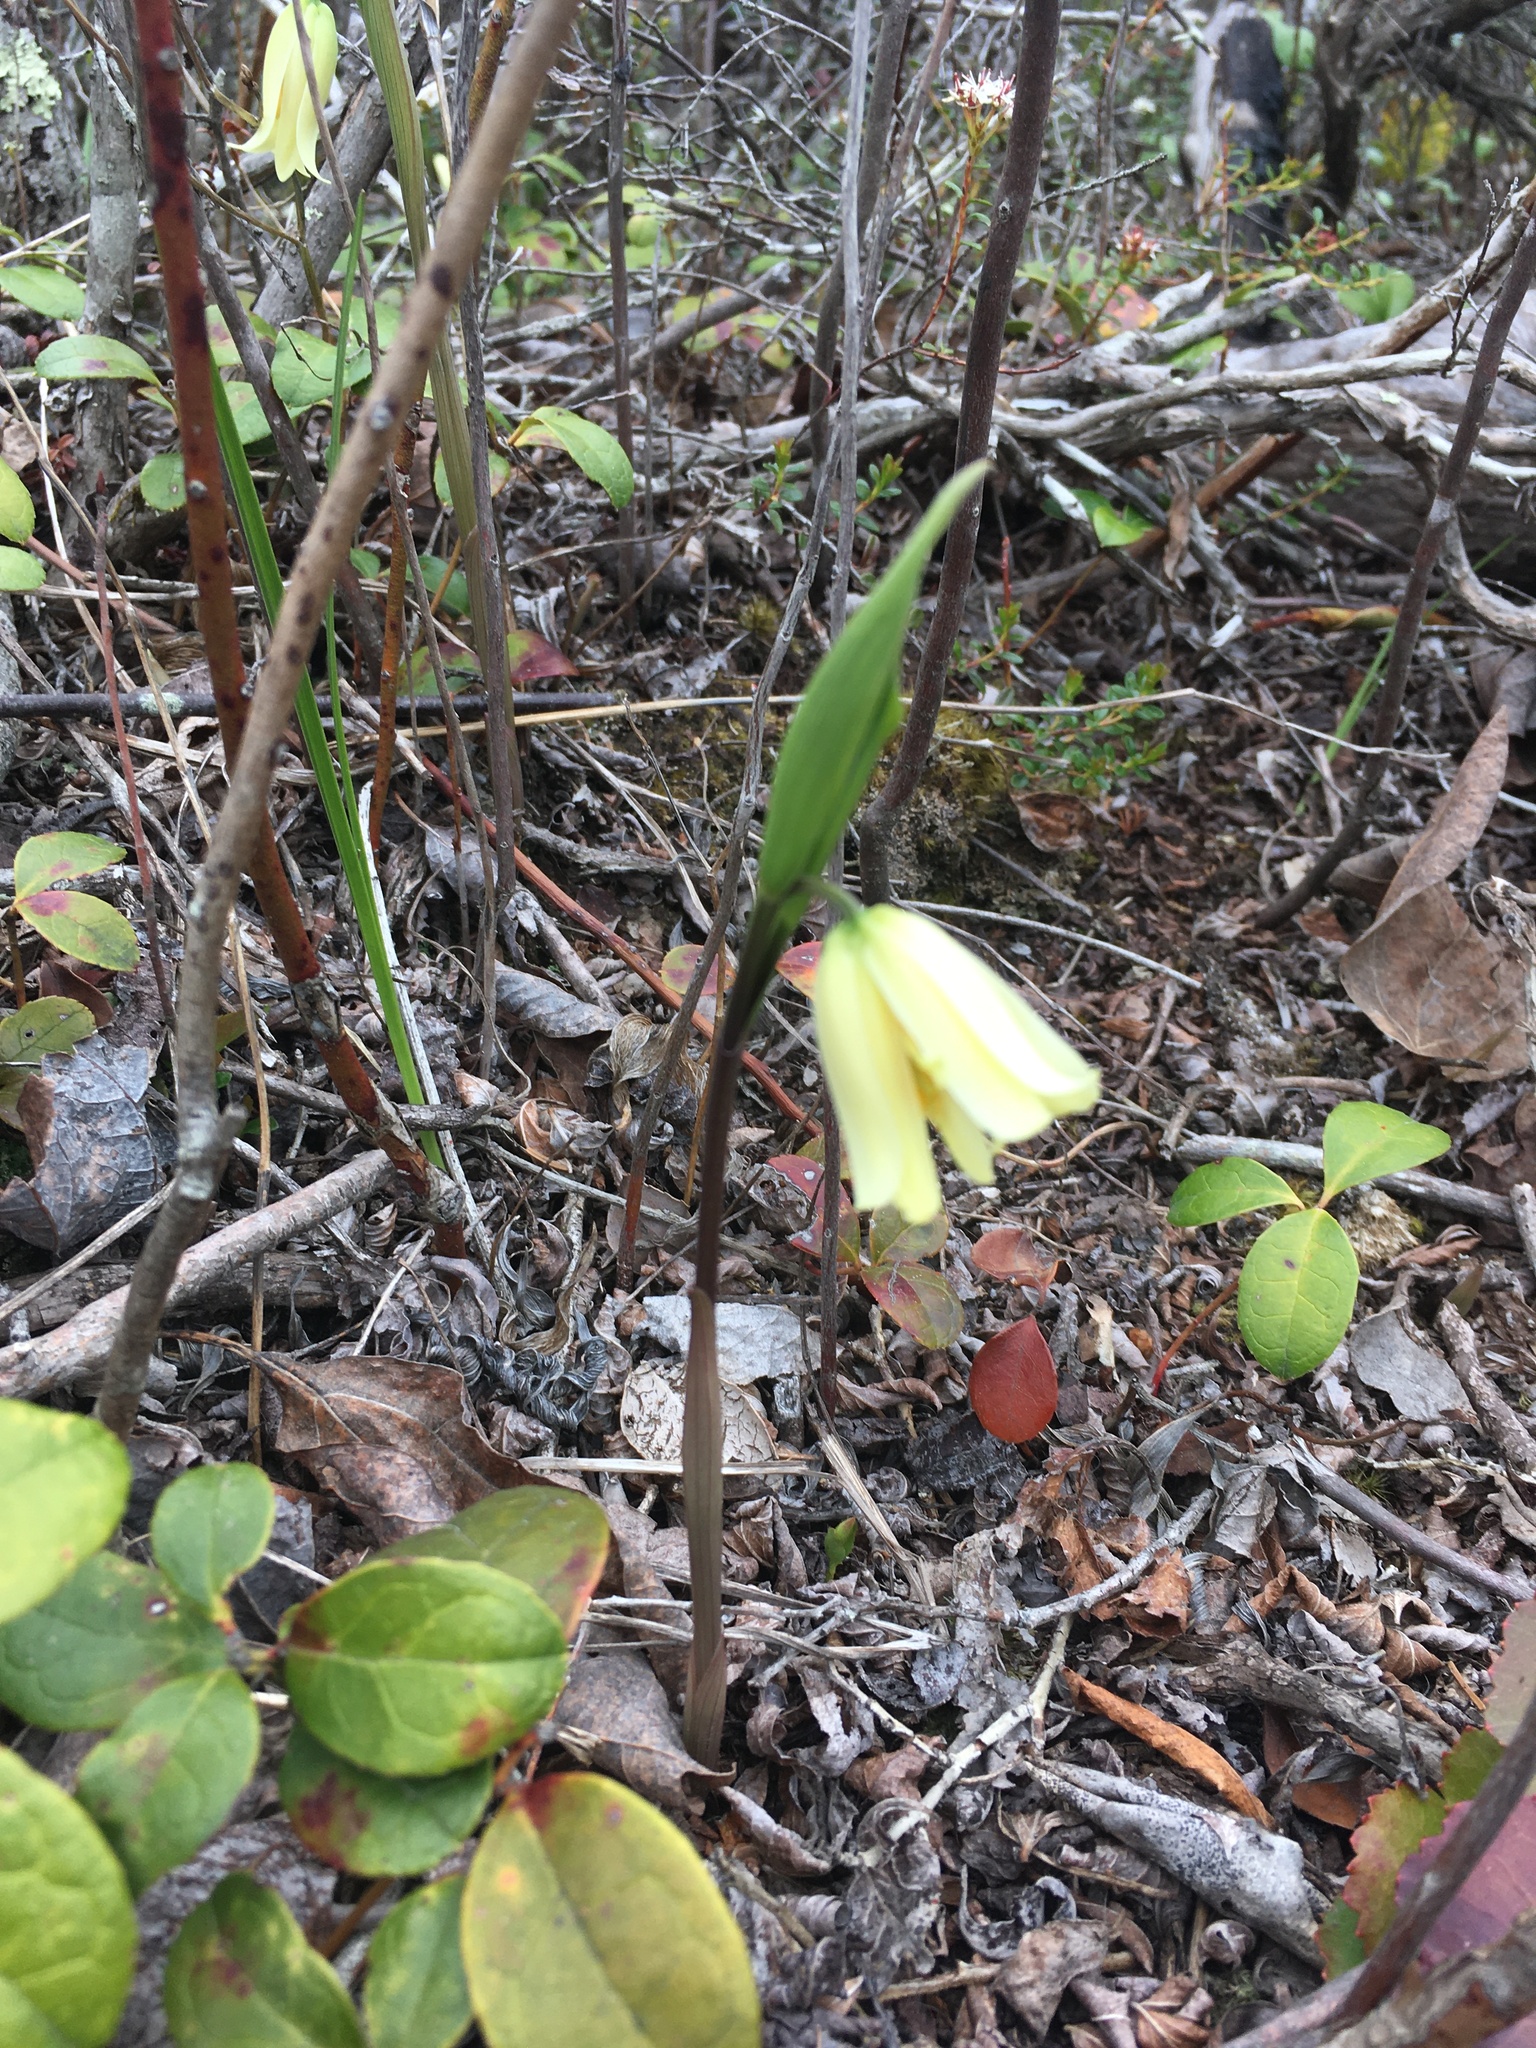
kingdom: Plantae
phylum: Tracheophyta
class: Liliopsida
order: Liliales
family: Colchicaceae
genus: Uvularia
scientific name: Uvularia puberula
